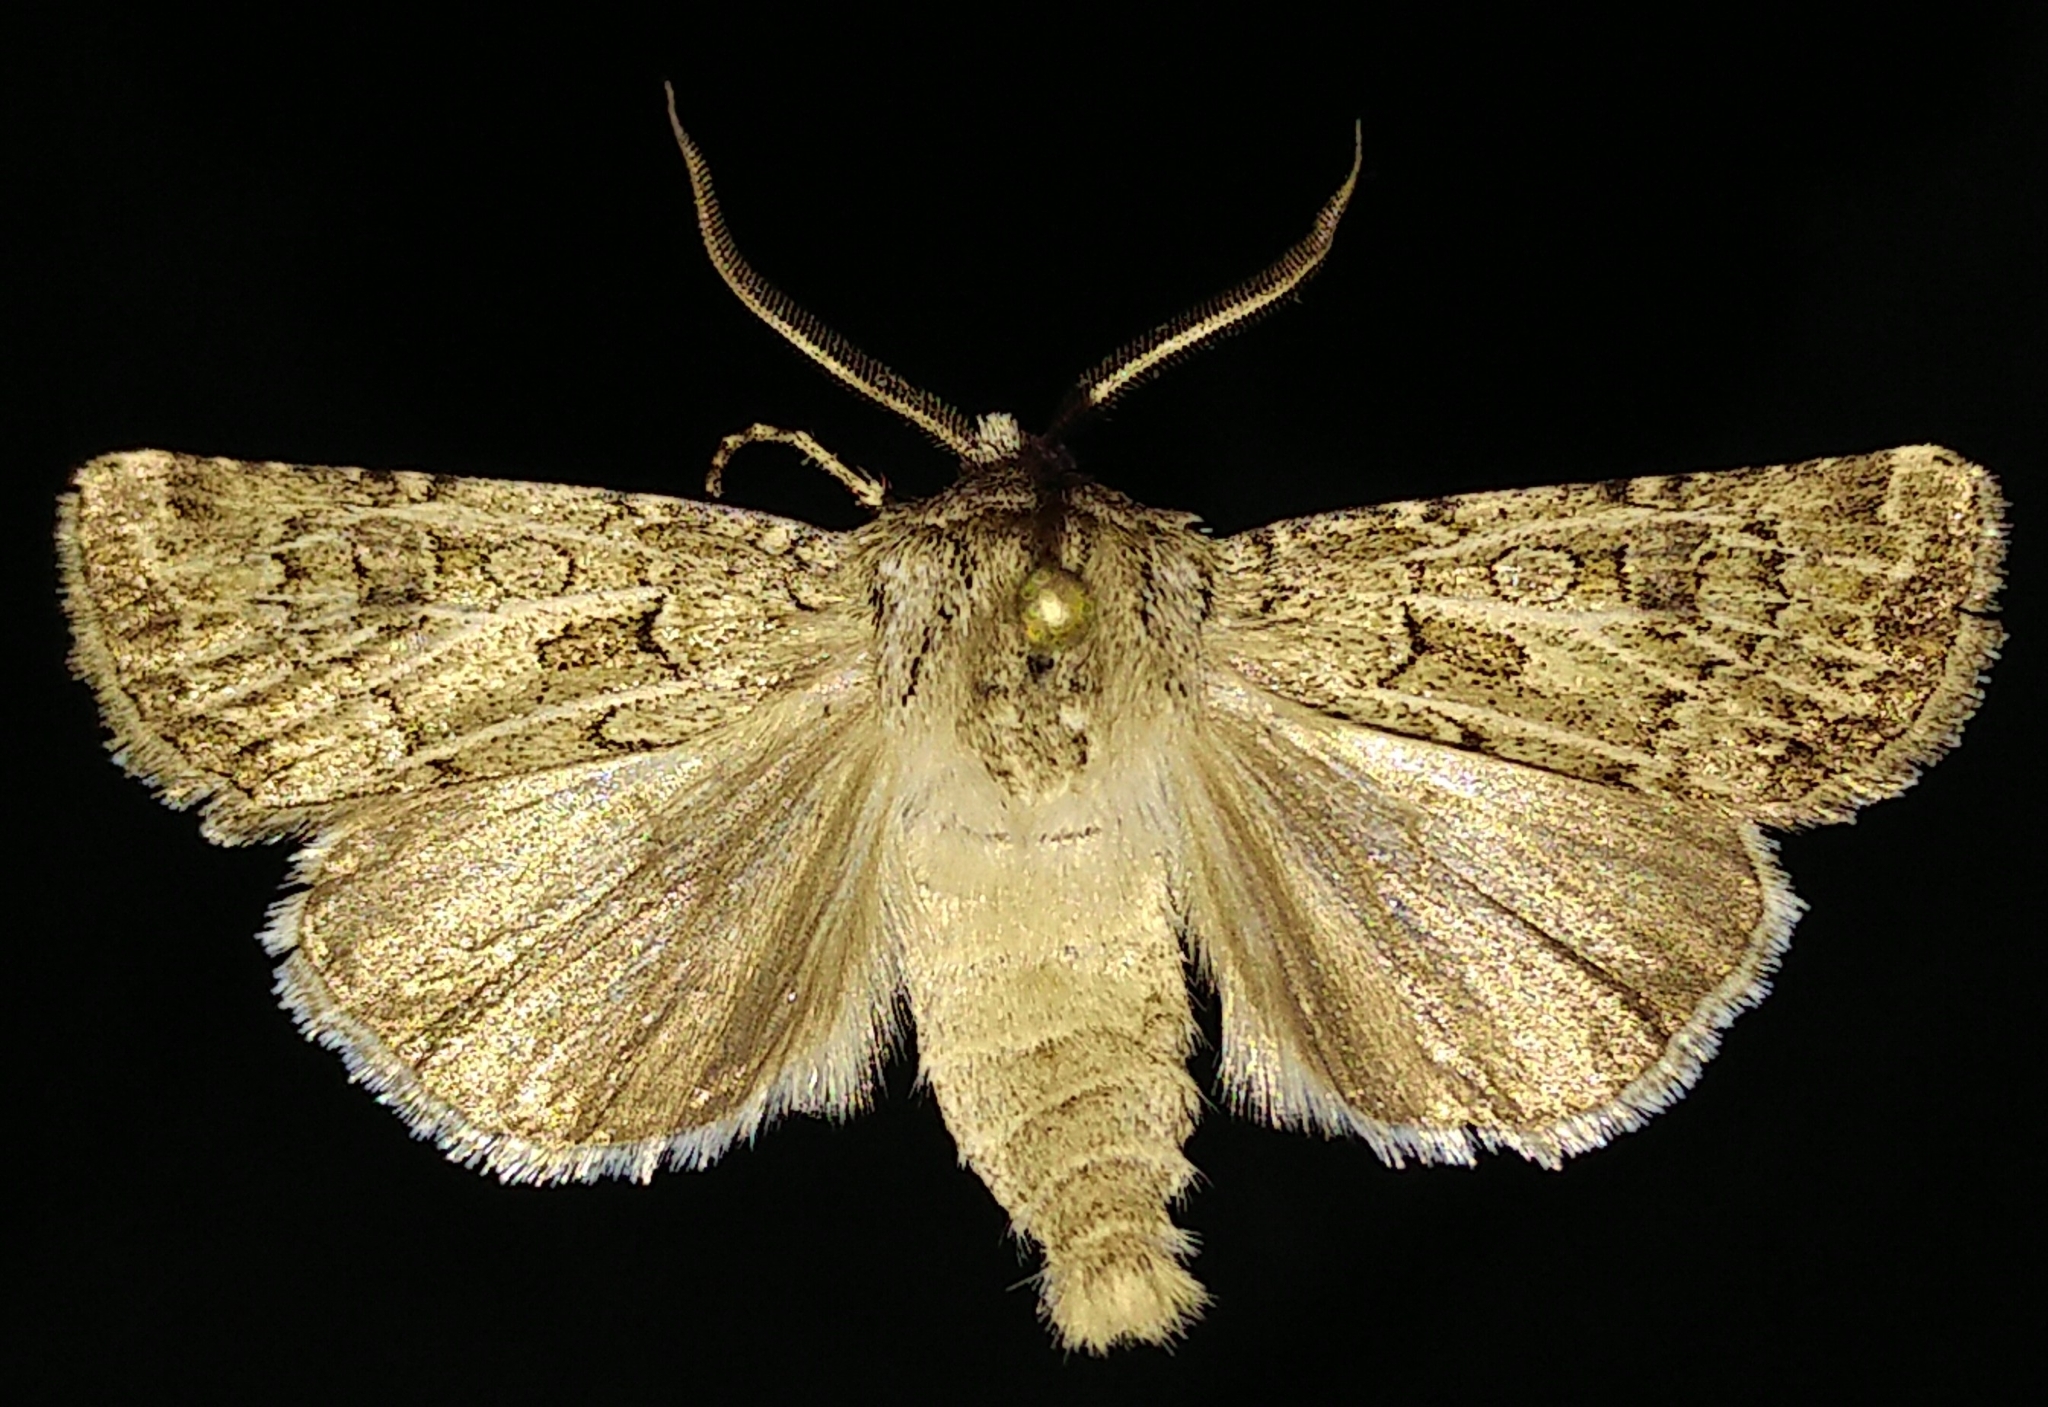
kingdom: Animalia
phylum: Arthropoda
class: Insecta
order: Lepidoptera
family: Noctuidae
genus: Agrotis
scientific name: Agrotis orthogonia
